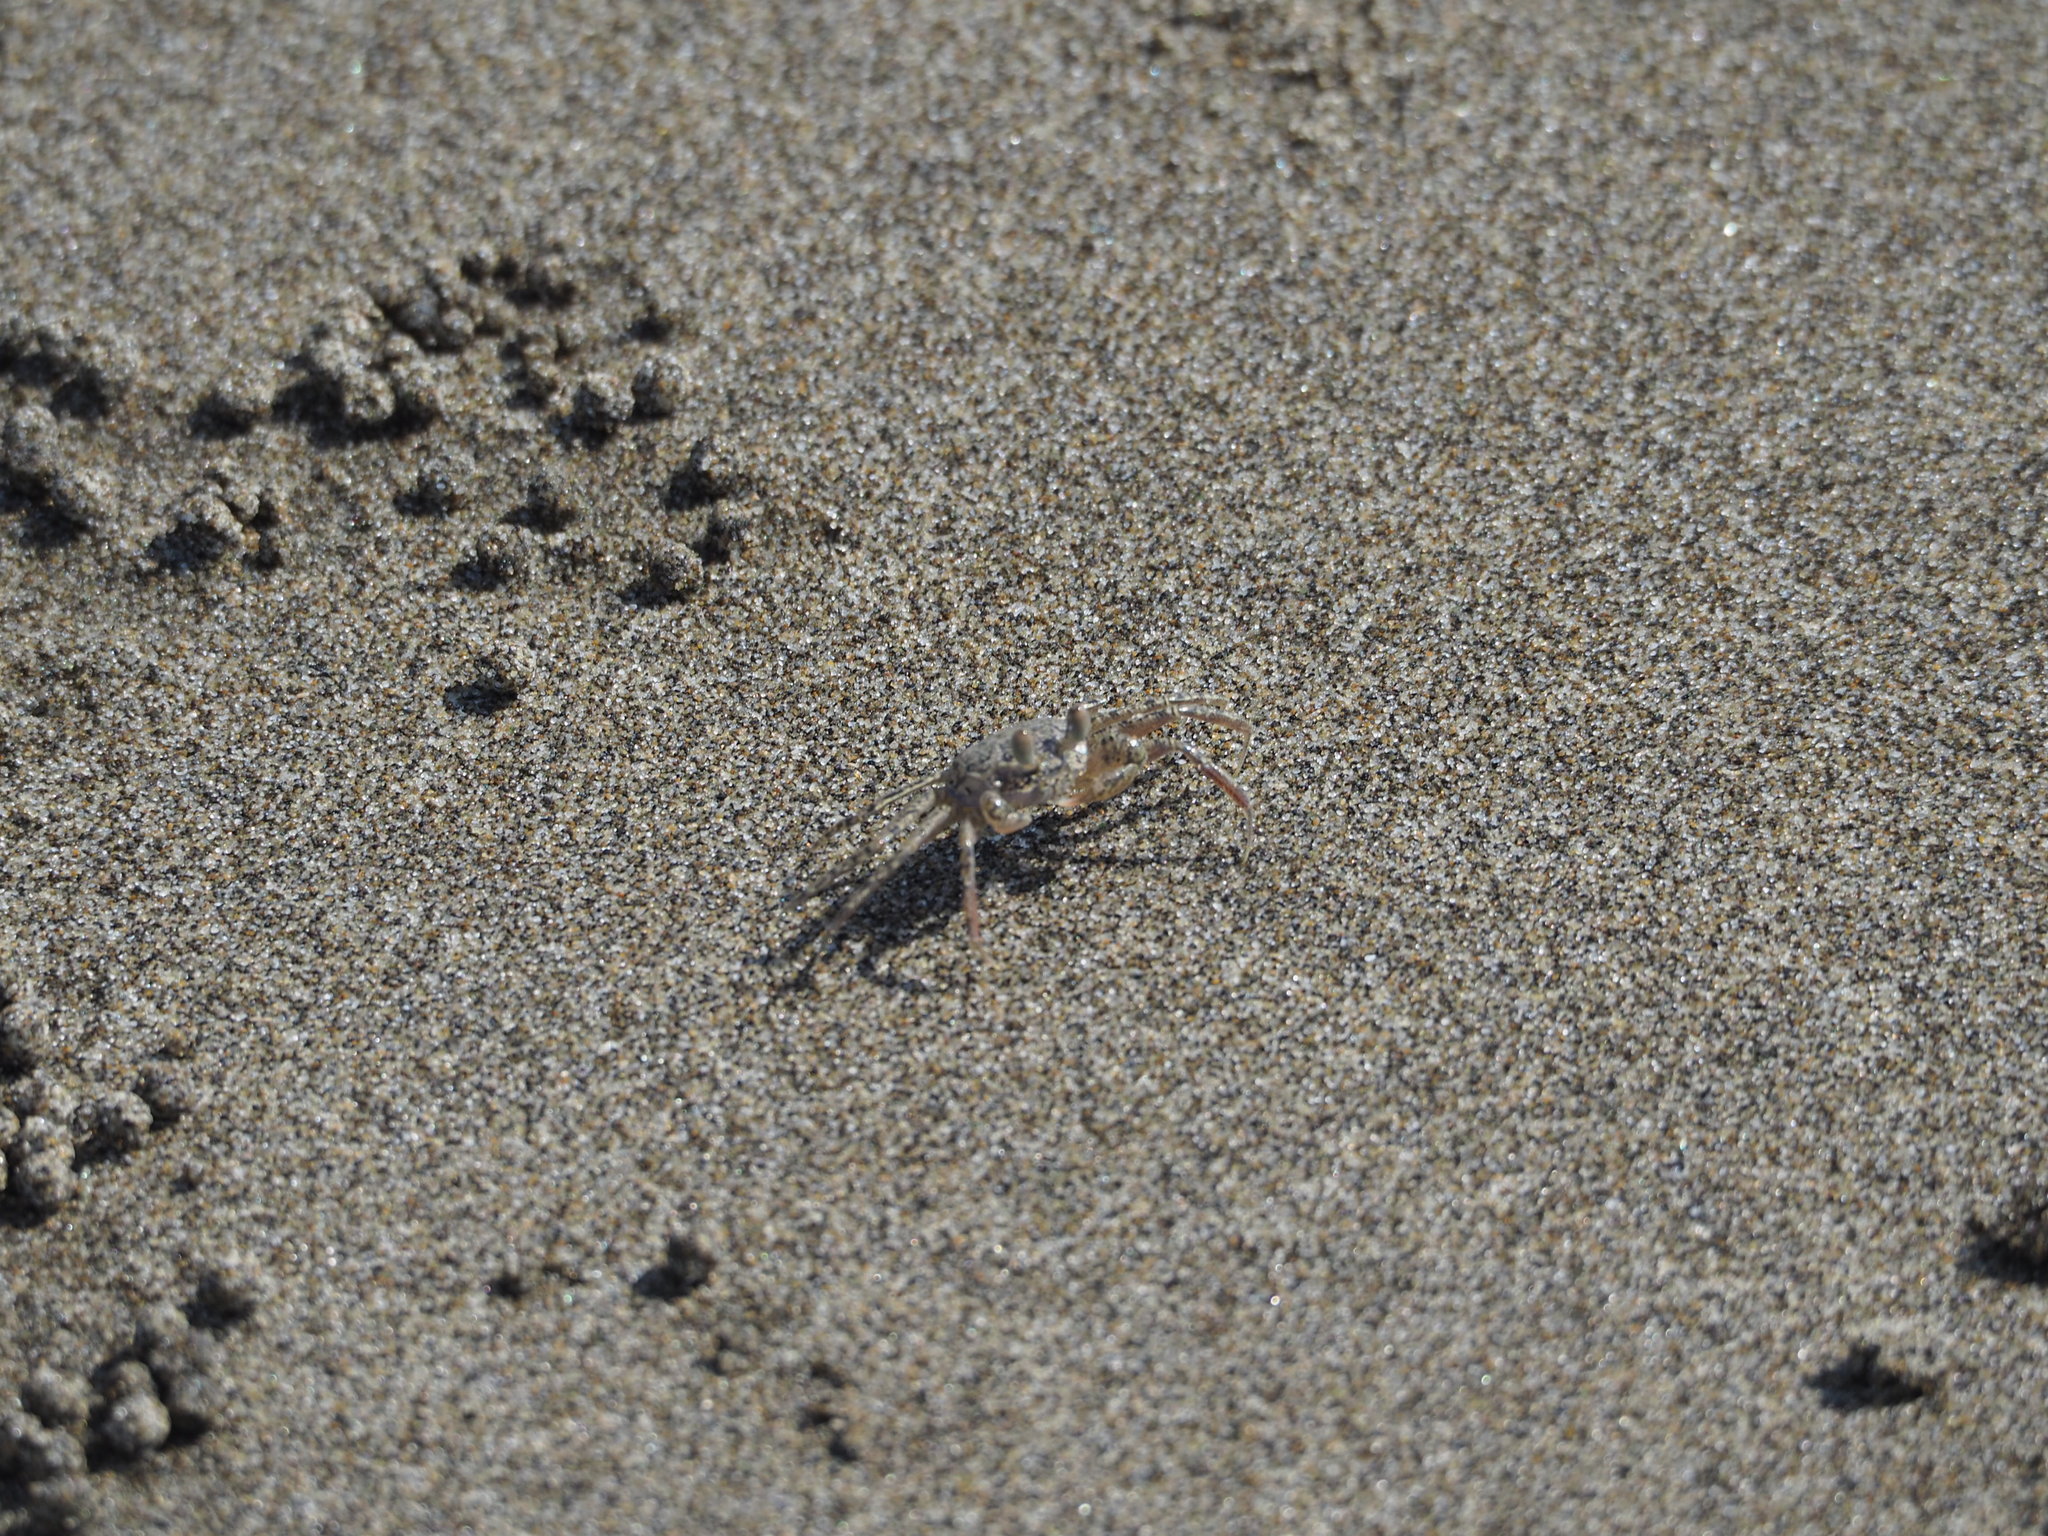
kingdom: Animalia
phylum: Arthropoda
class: Malacostraca
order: Decapoda
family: Ocypodidae
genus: Ocypode
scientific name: Ocypode stimpsoni
